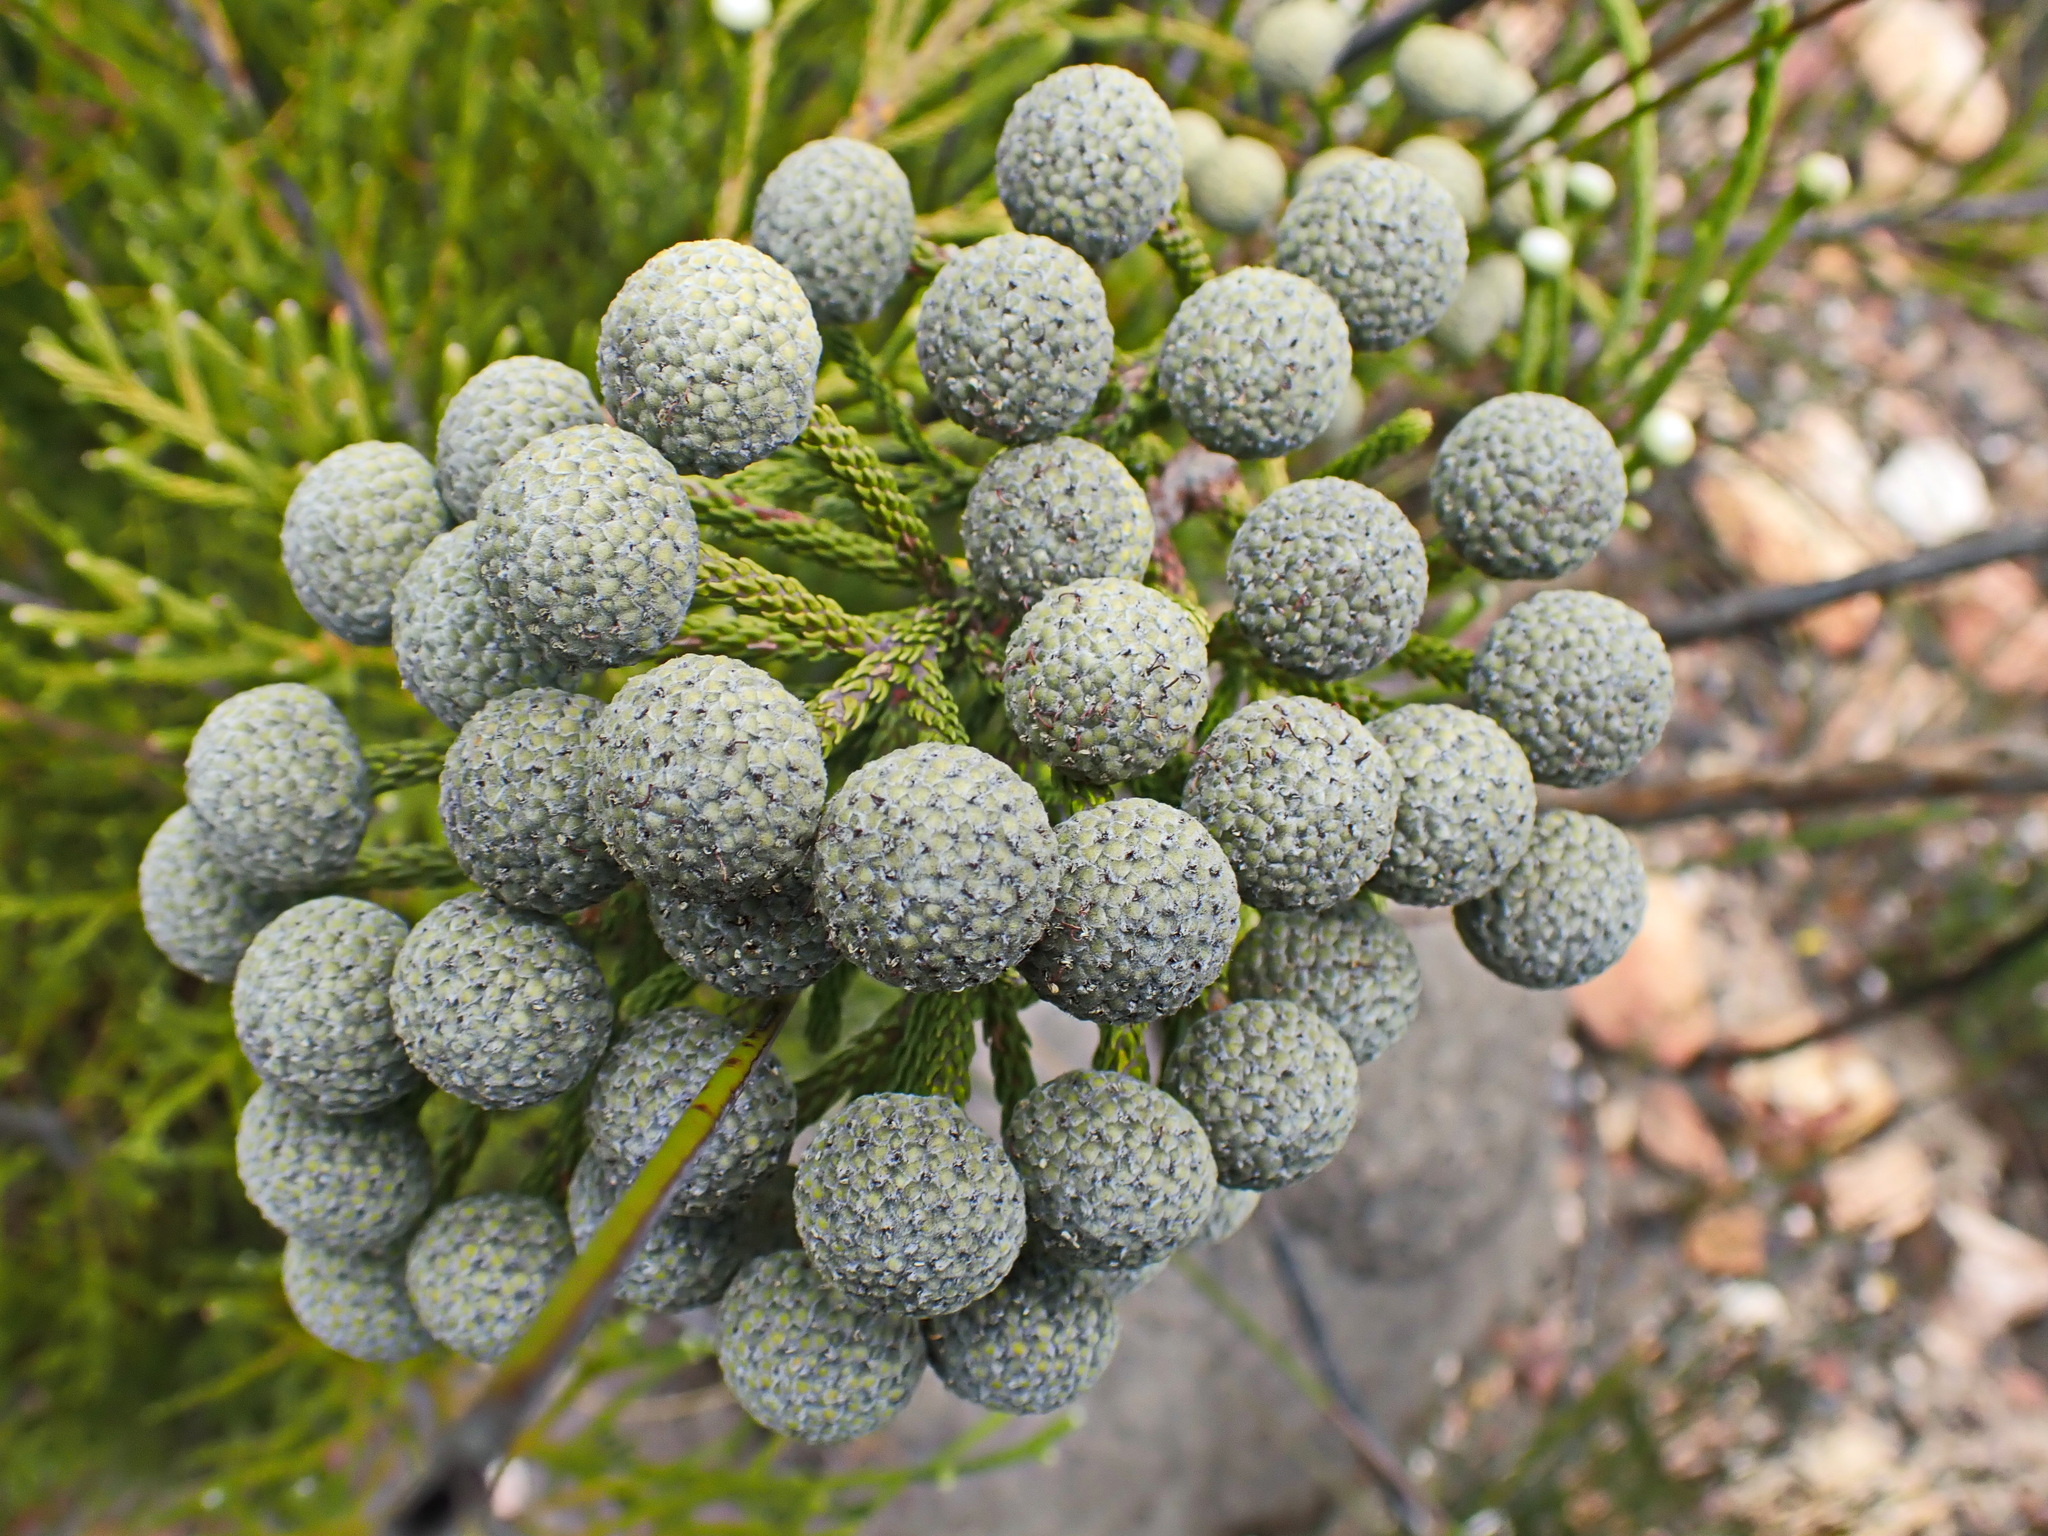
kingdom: Plantae
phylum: Tracheophyta
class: Magnoliopsida
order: Bruniales
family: Bruniaceae
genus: Brunia
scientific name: Brunia noduliflora
